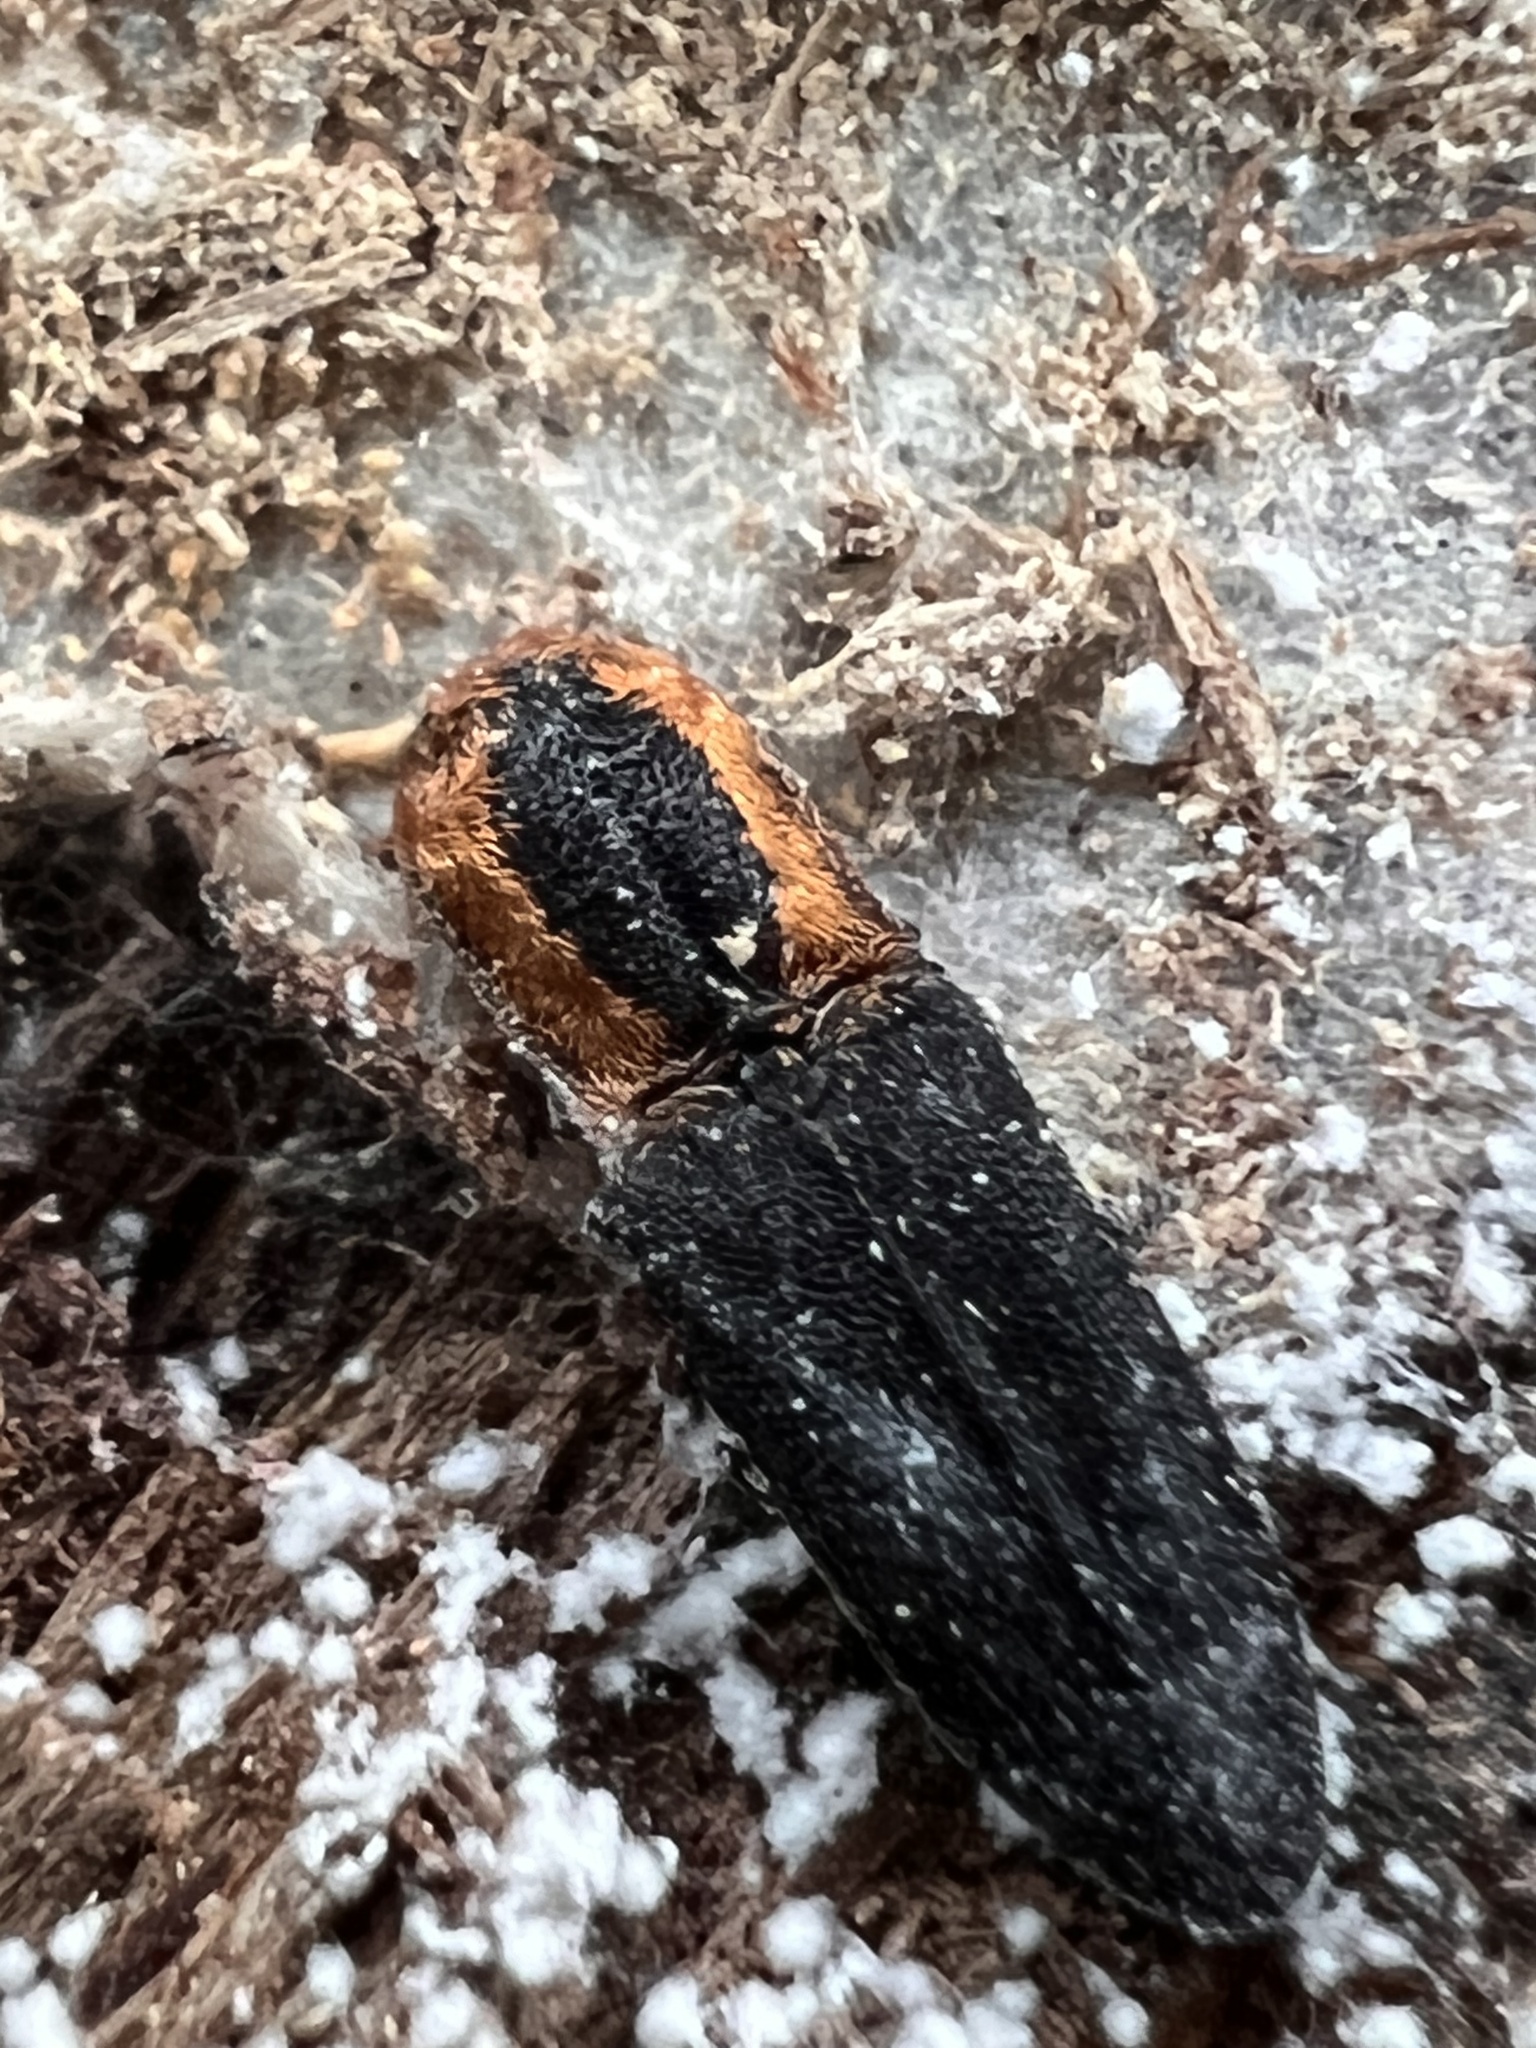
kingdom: Animalia
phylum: Arthropoda
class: Insecta
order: Coleoptera
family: Elateridae
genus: Lacon
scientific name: Lacon discoideus
